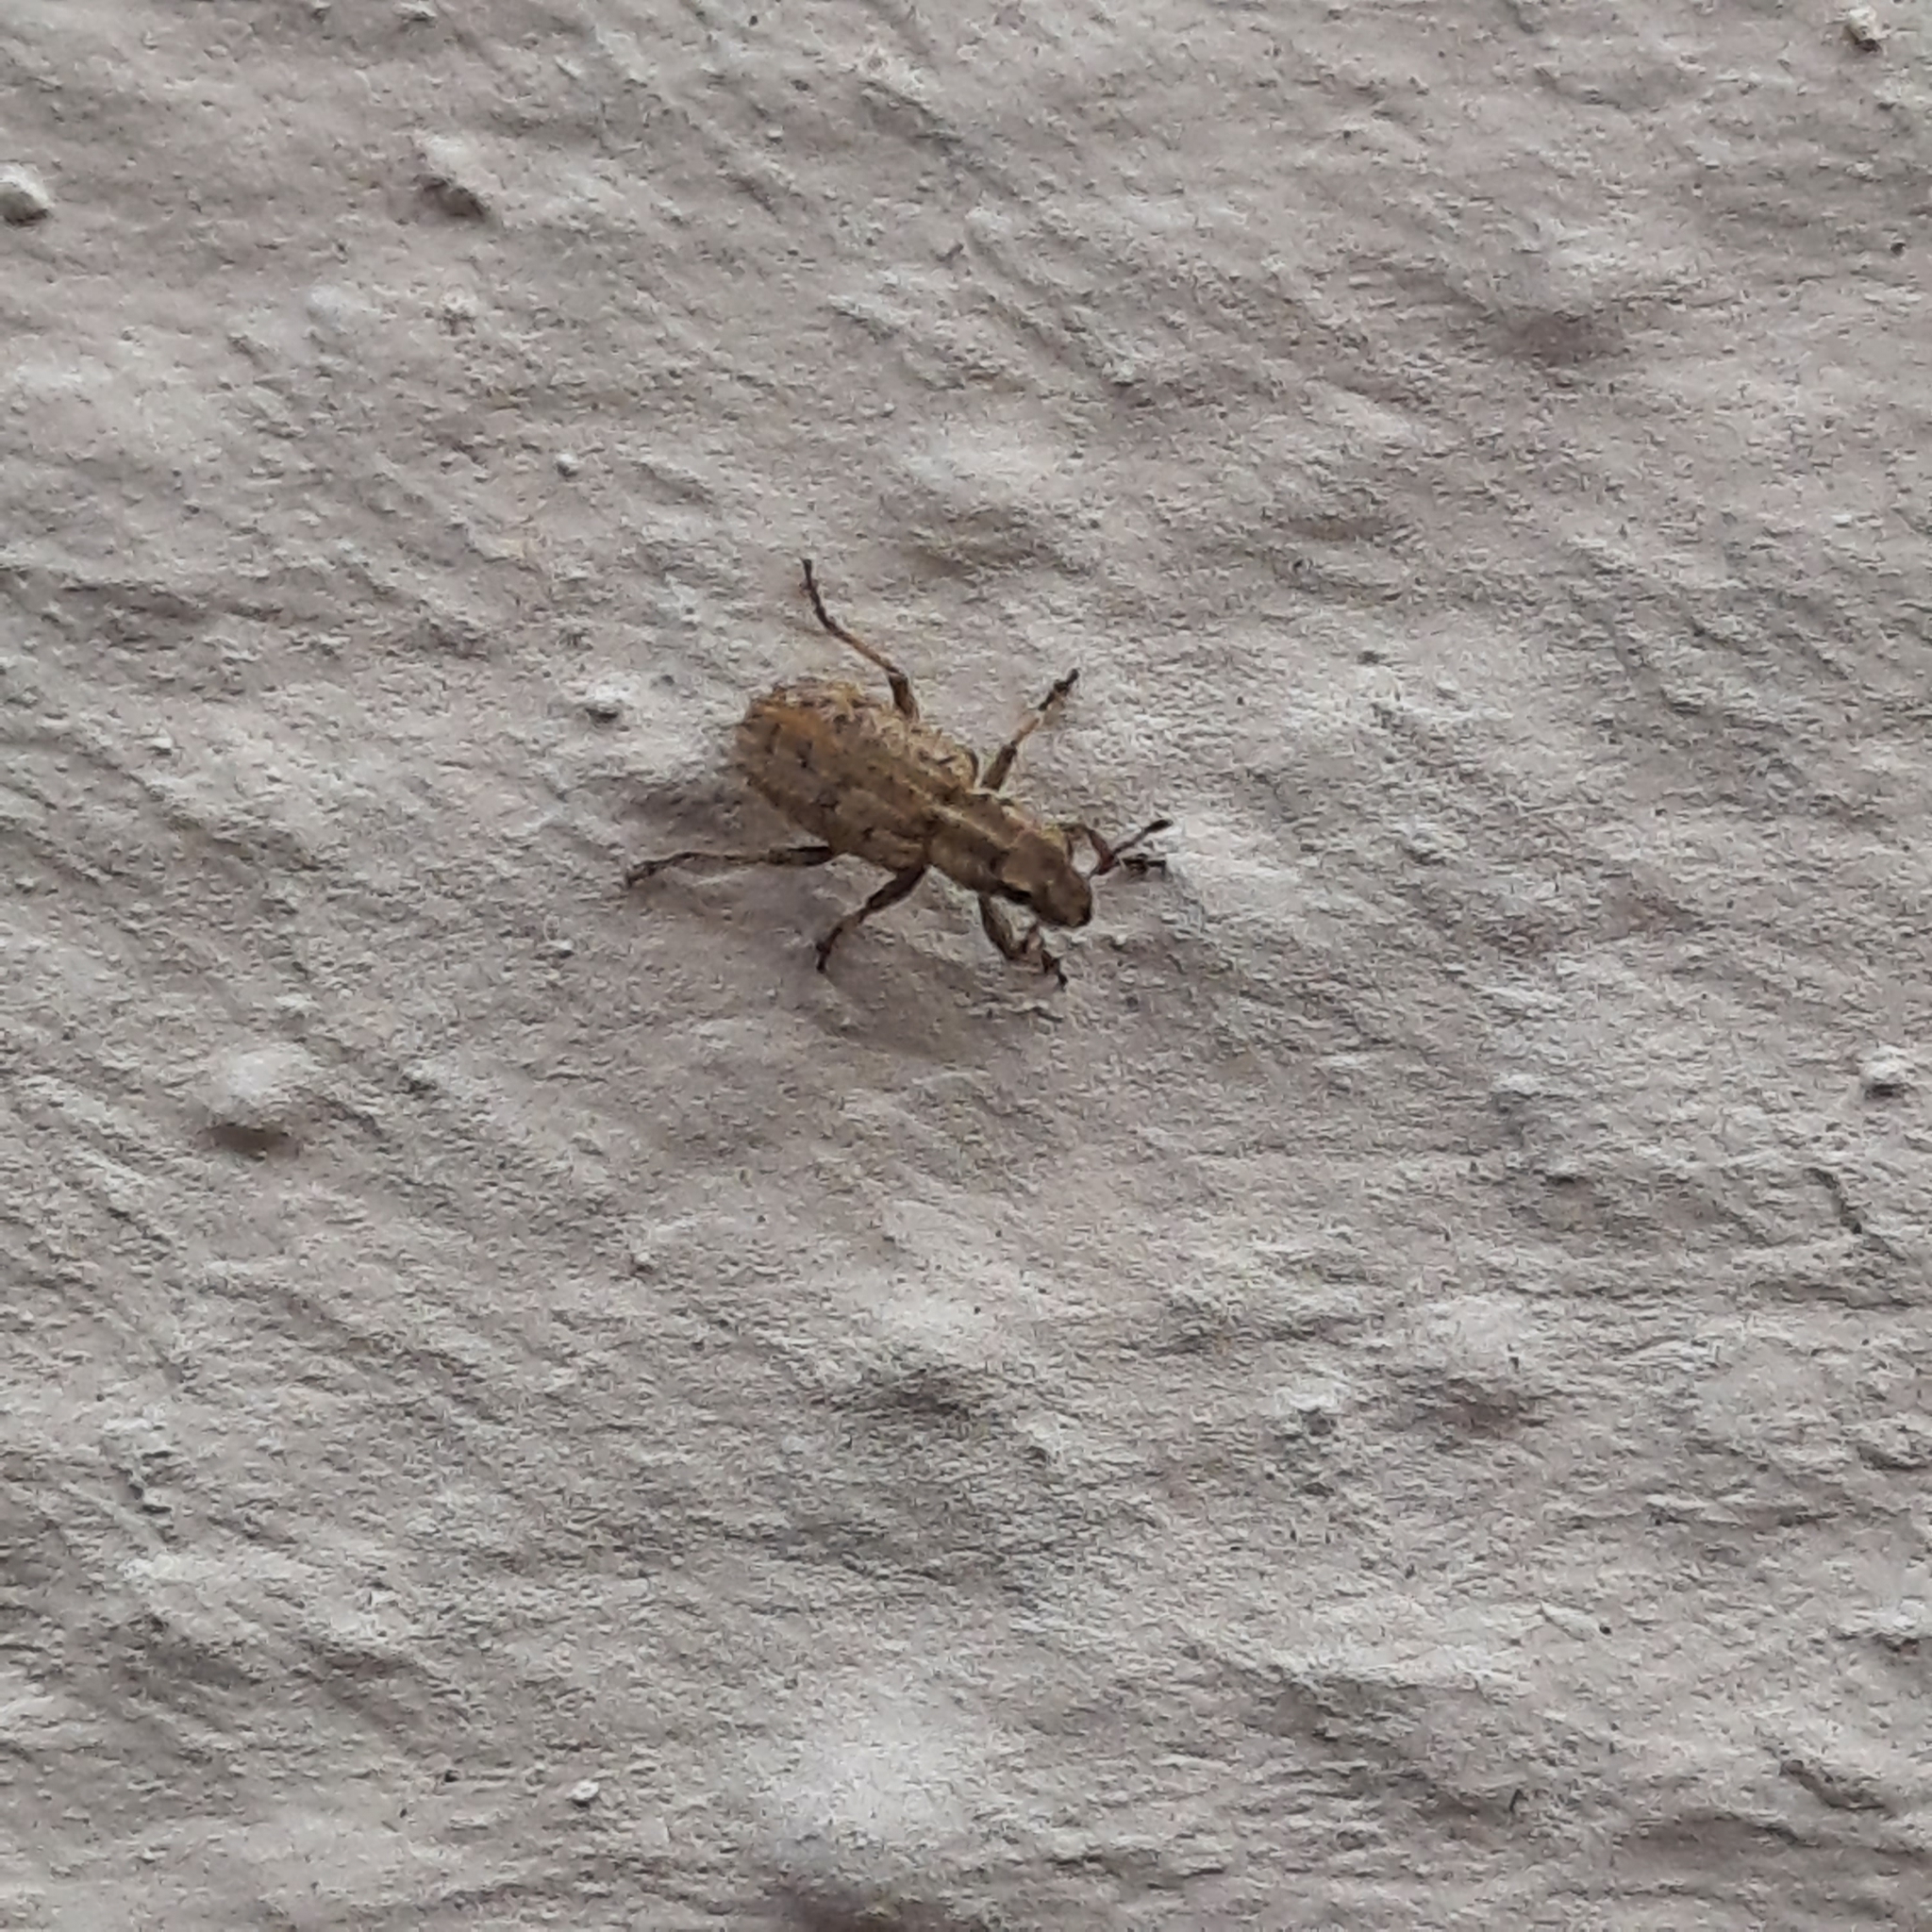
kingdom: Animalia
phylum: Arthropoda
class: Insecta
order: Coleoptera
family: Curculionidae
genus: Sitona
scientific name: Sitona macularius
